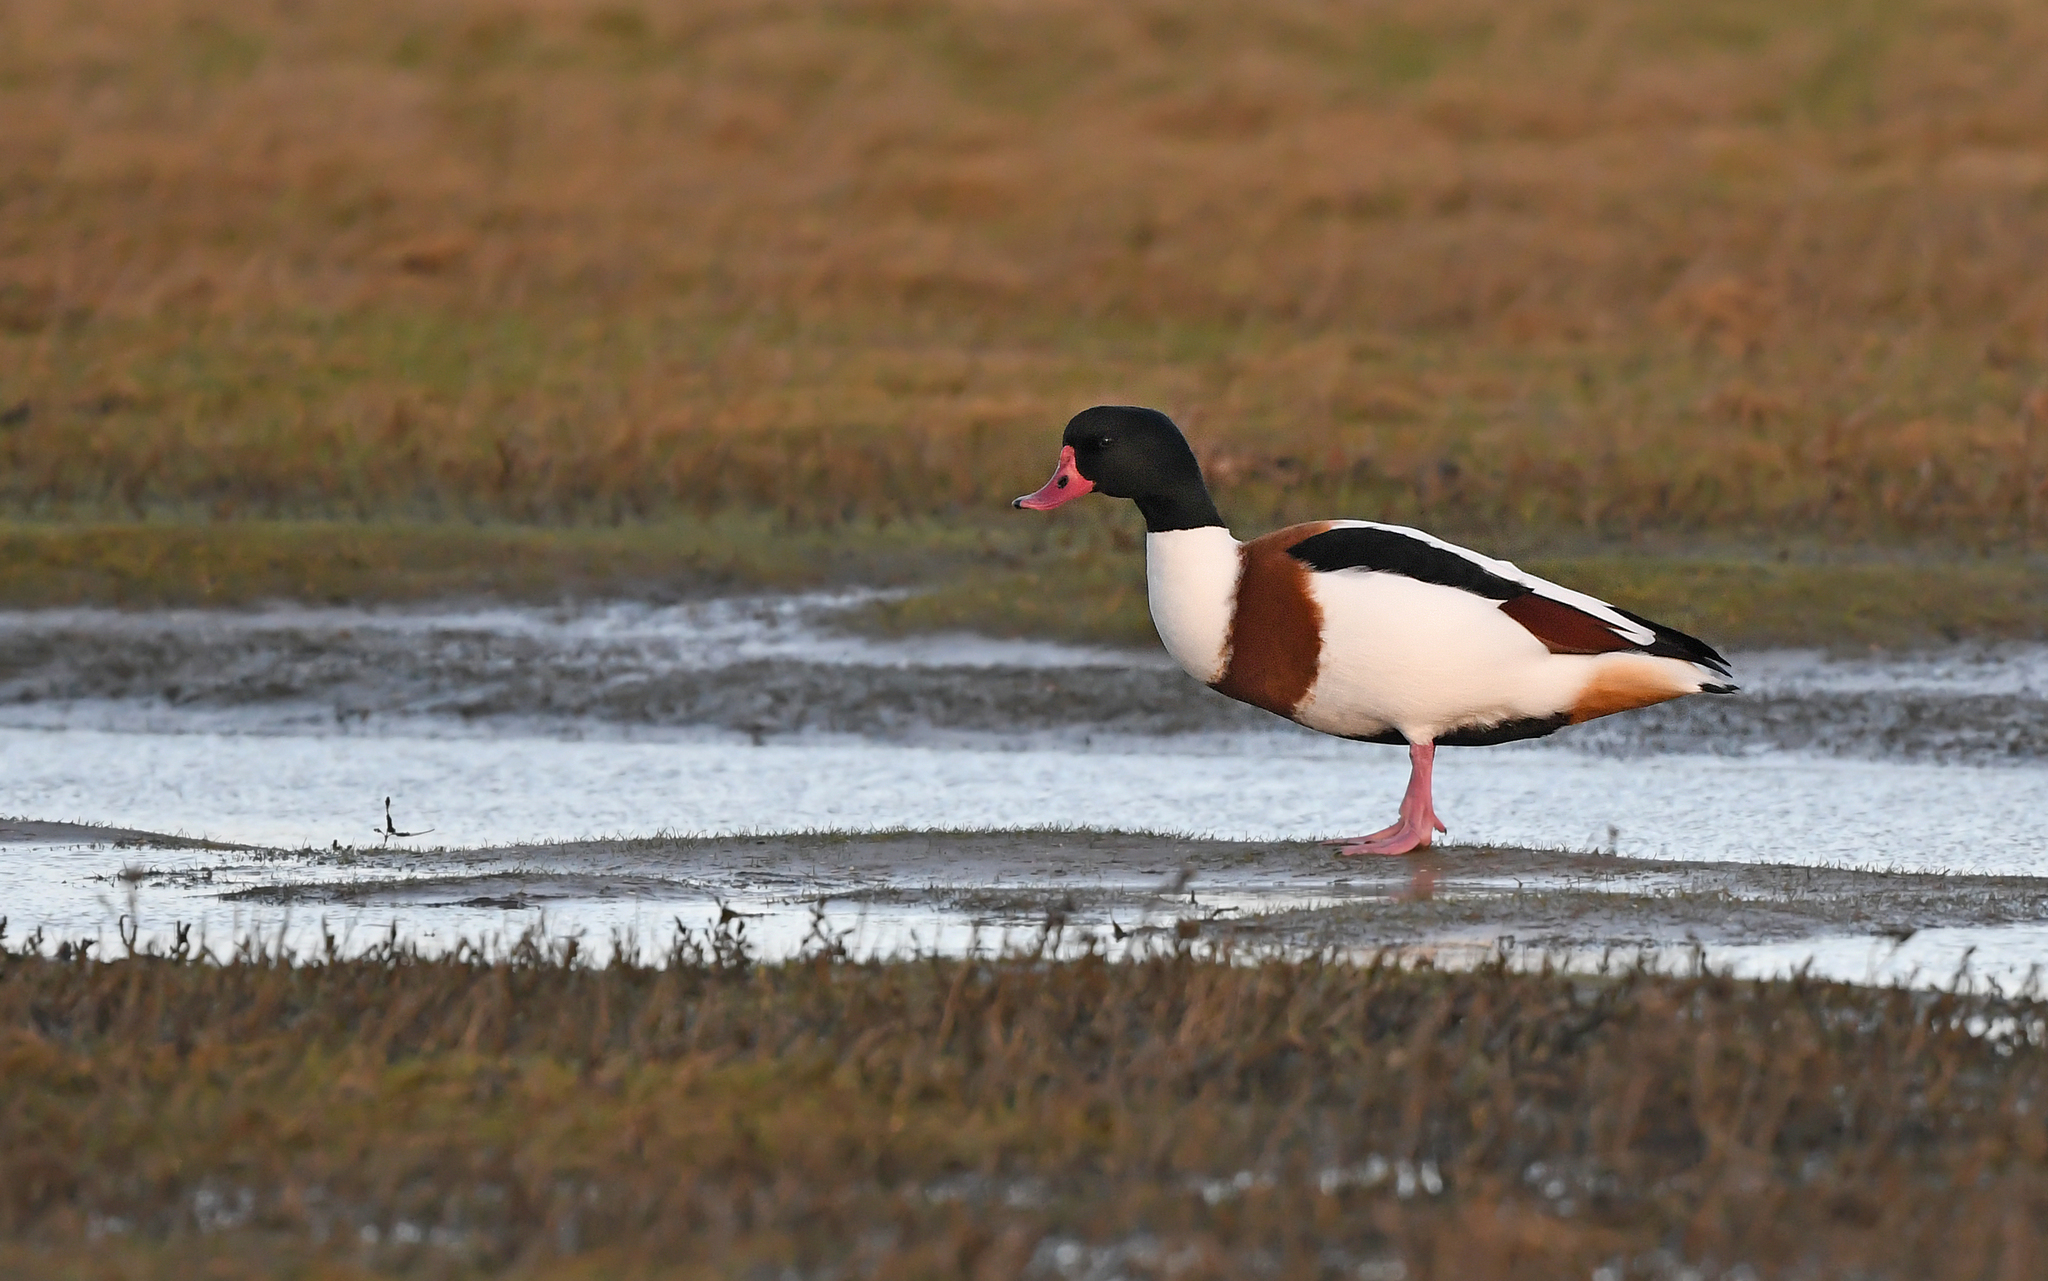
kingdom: Animalia
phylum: Chordata
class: Aves
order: Anseriformes
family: Anatidae
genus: Tadorna
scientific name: Tadorna tadorna
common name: Common shelduck
